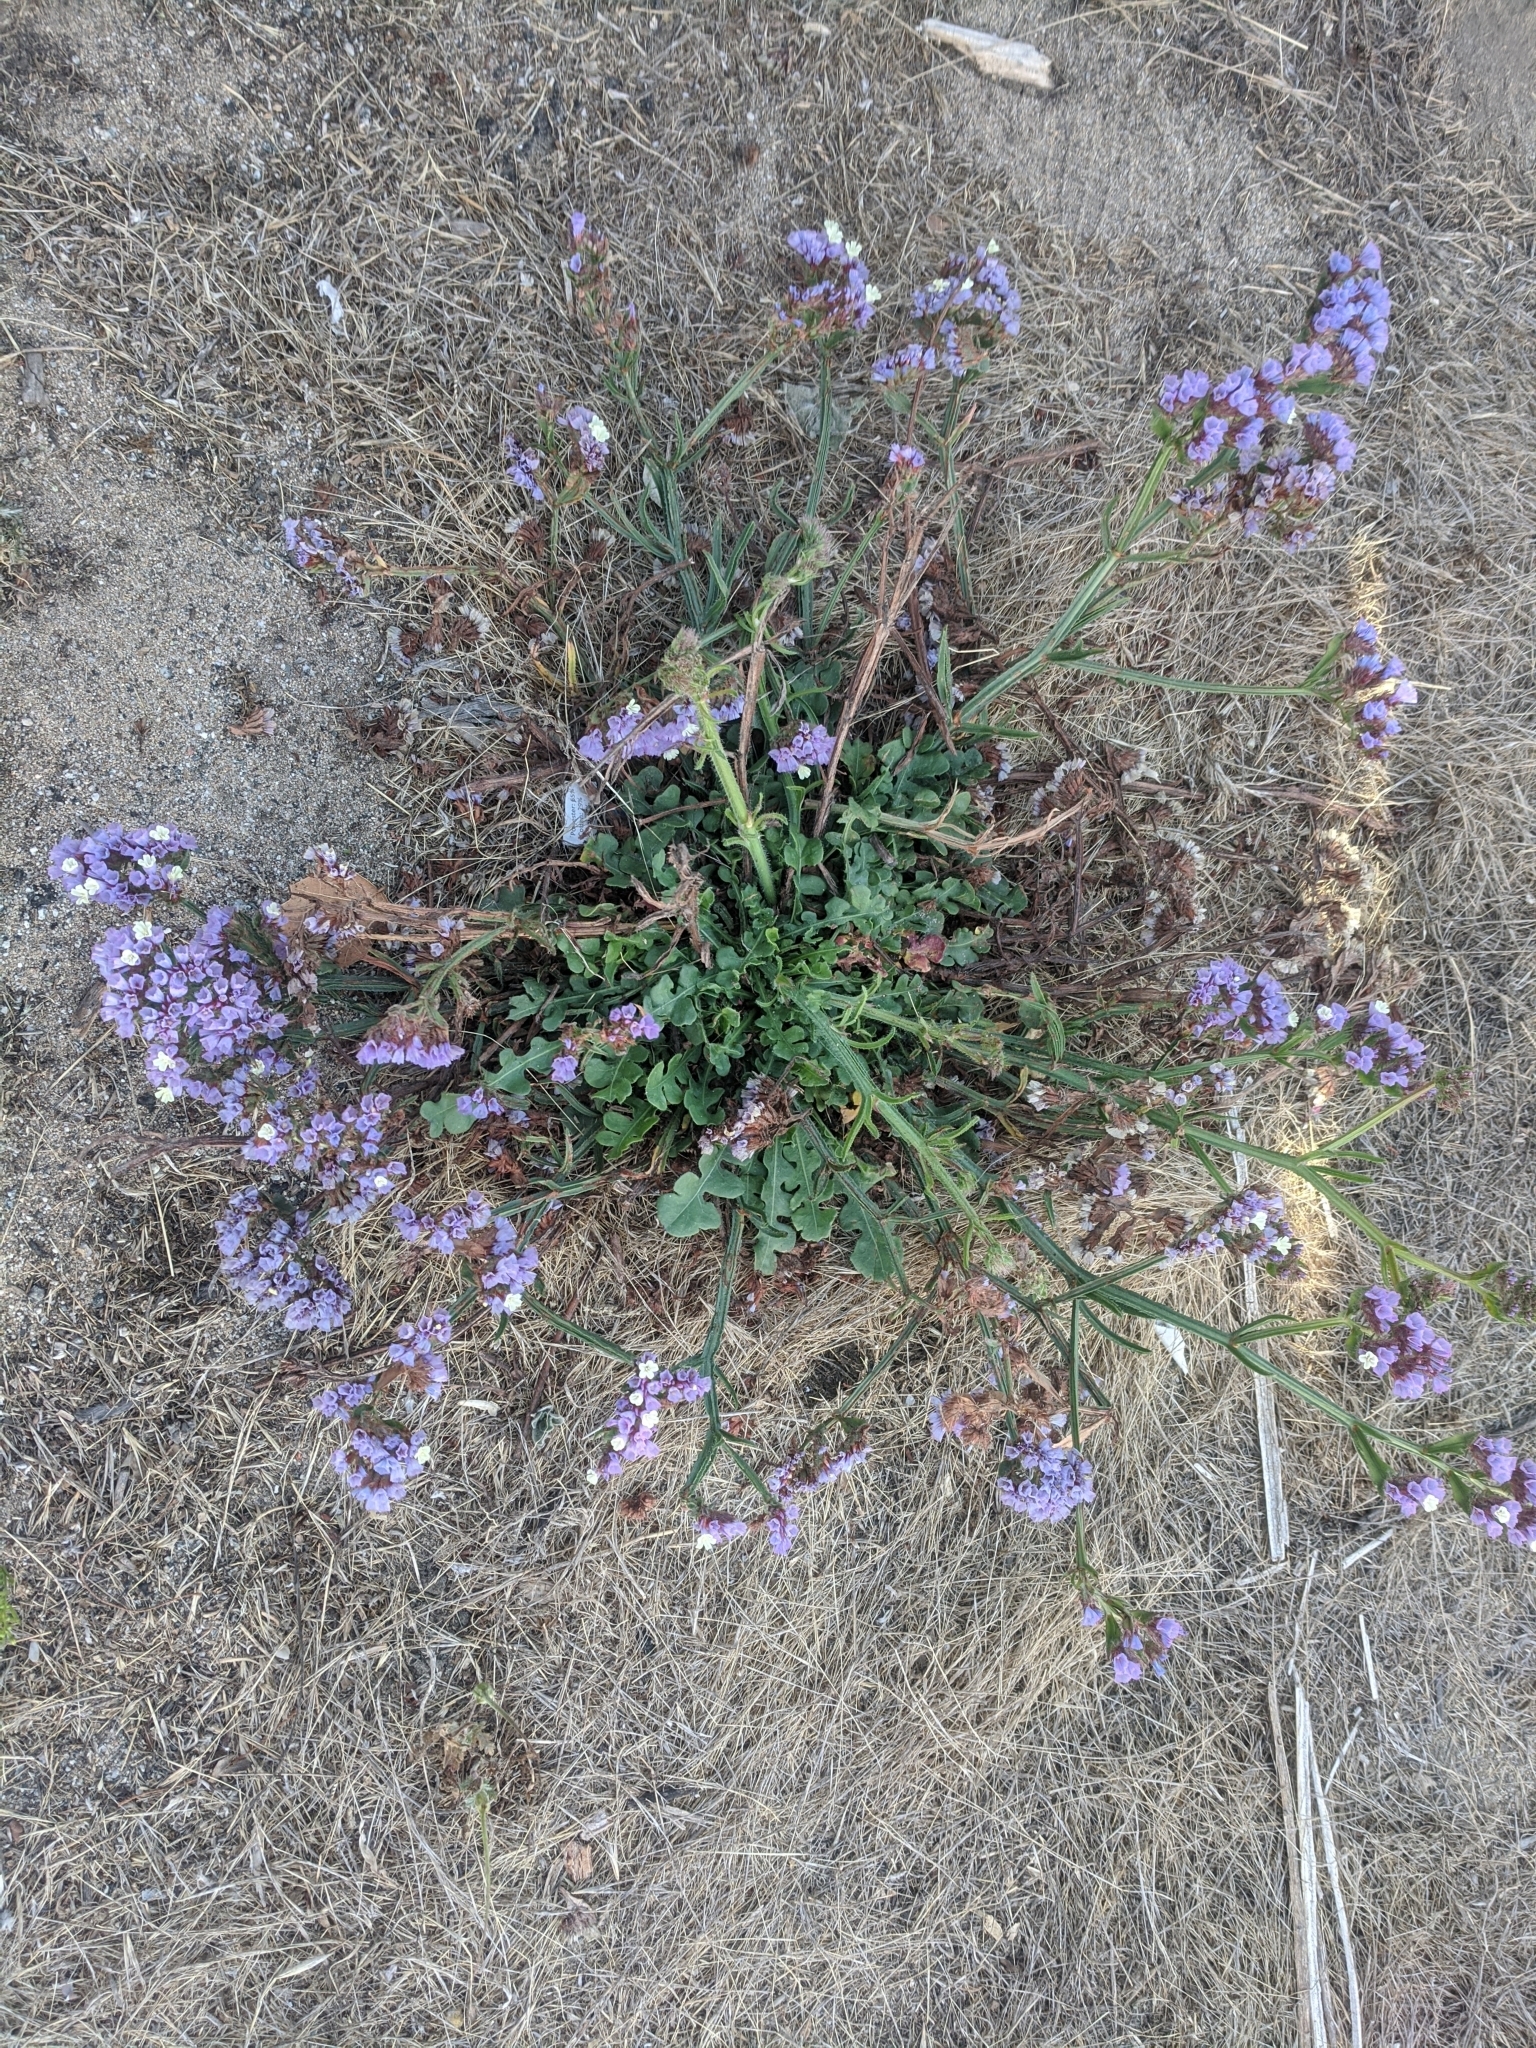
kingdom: Plantae
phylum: Tracheophyta
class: Magnoliopsida
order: Caryophyllales
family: Plumbaginaceae
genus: Limonium
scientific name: Limonium sinuatum
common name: Statice
